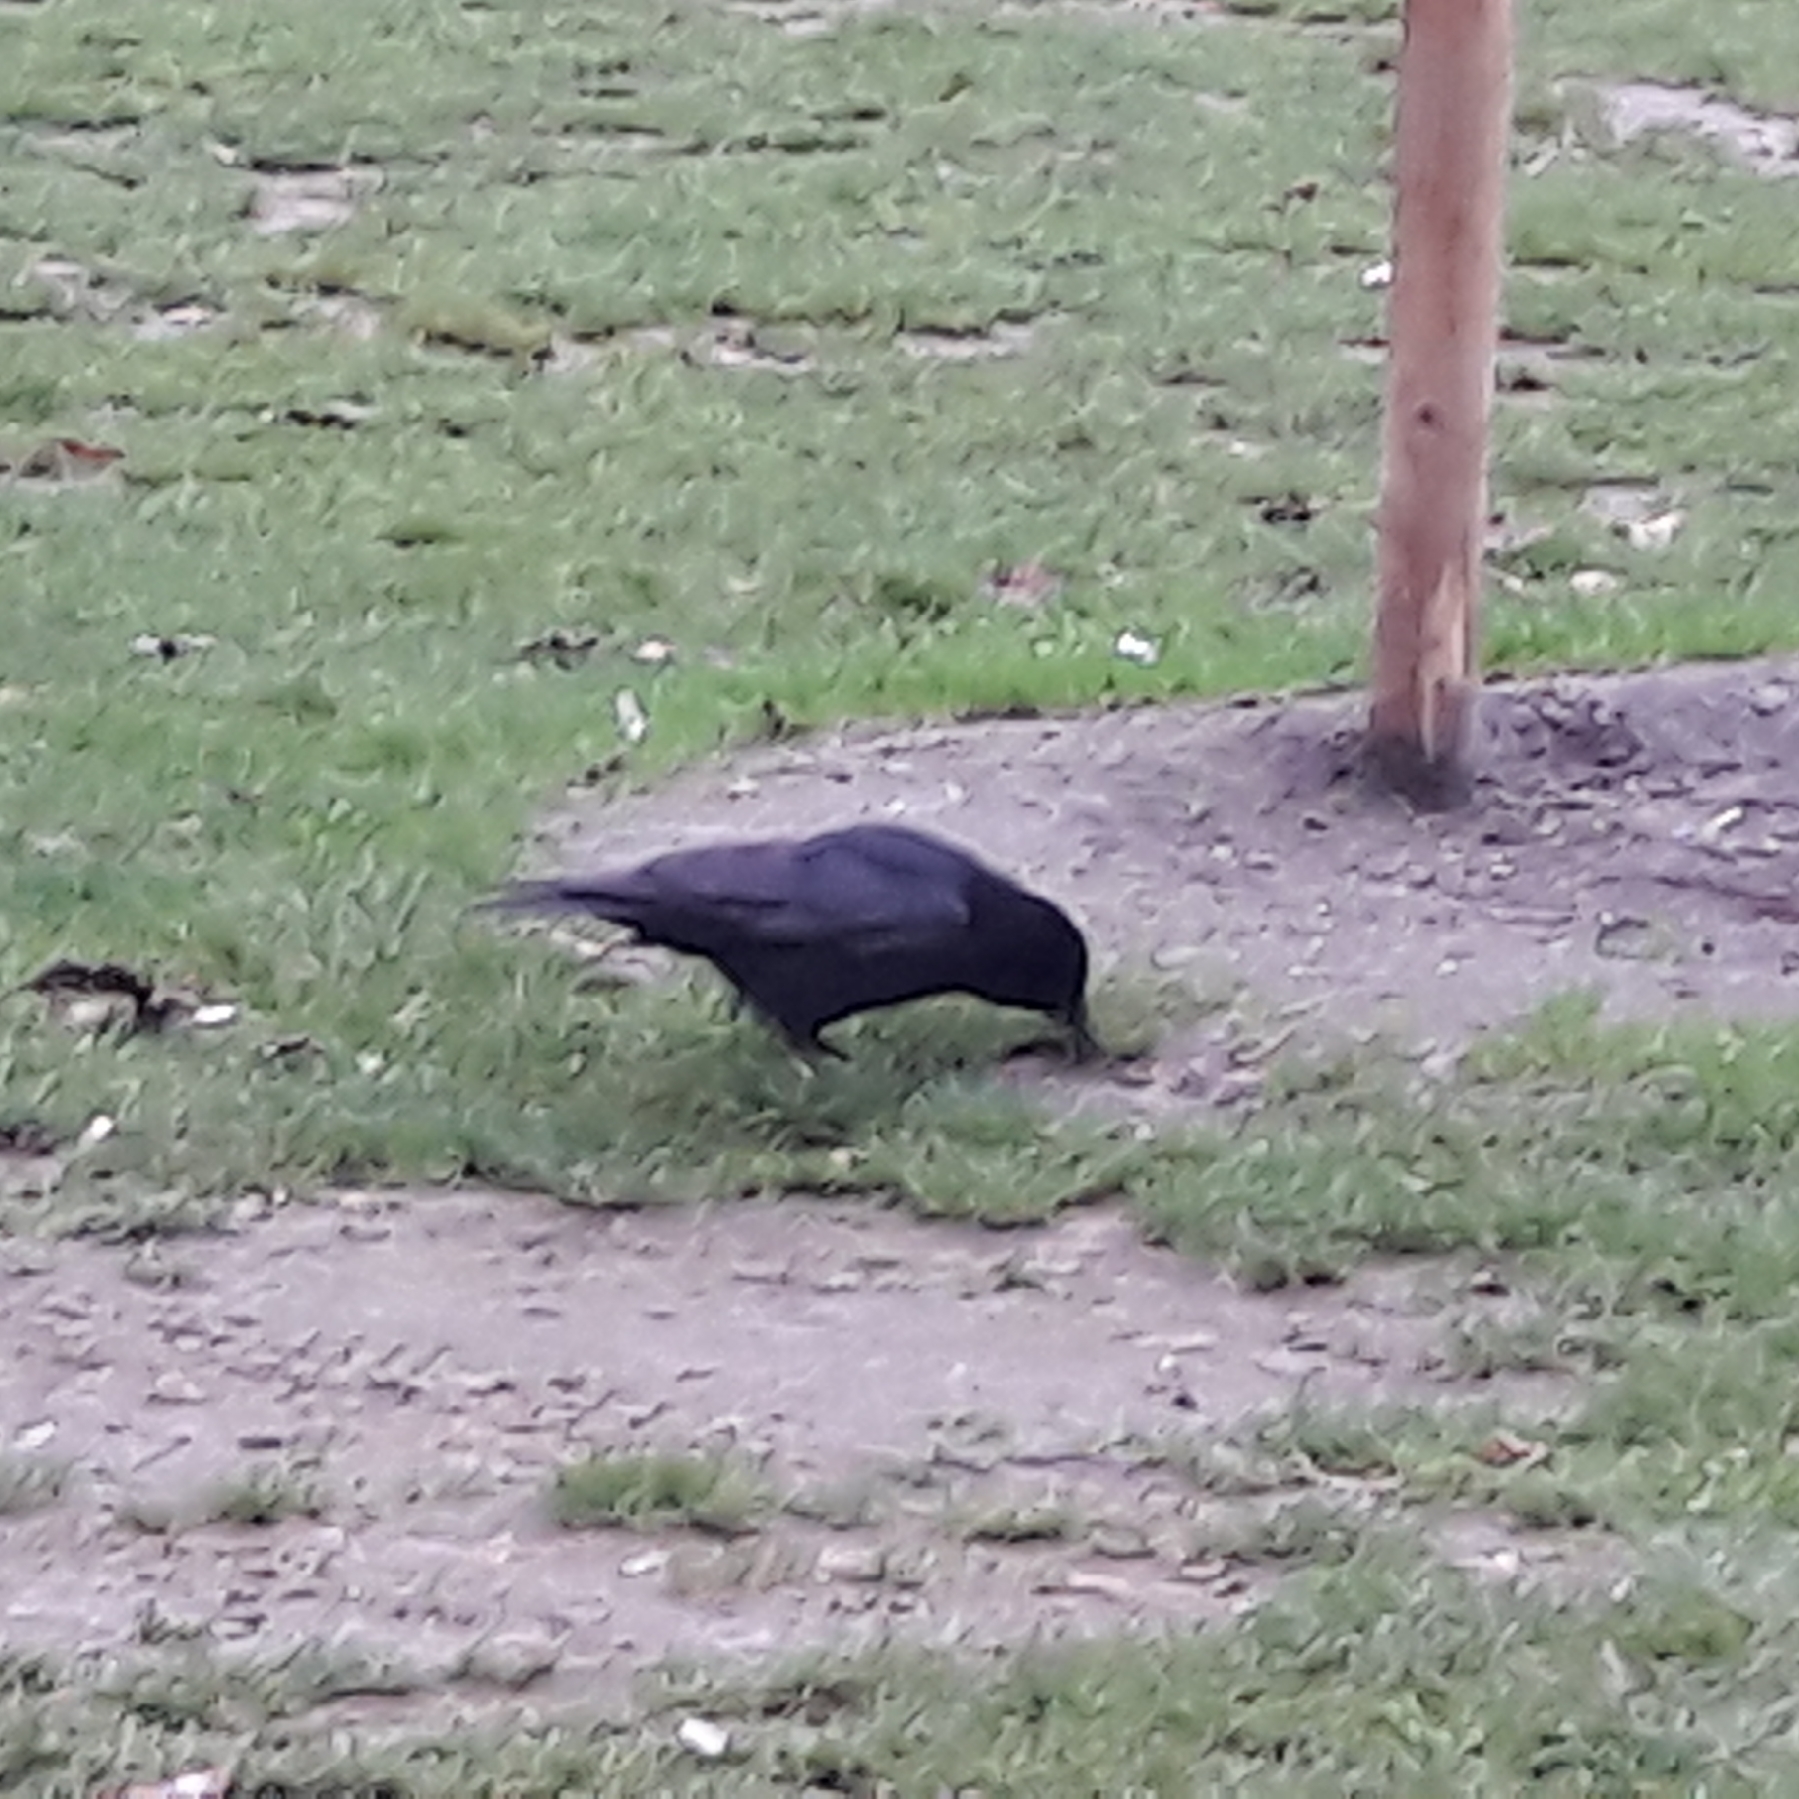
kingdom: Animalia
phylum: Chordata
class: Aves
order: Passeriformes
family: Corvidae
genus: Corvus
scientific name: Corvus corone
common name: Carrion crow
